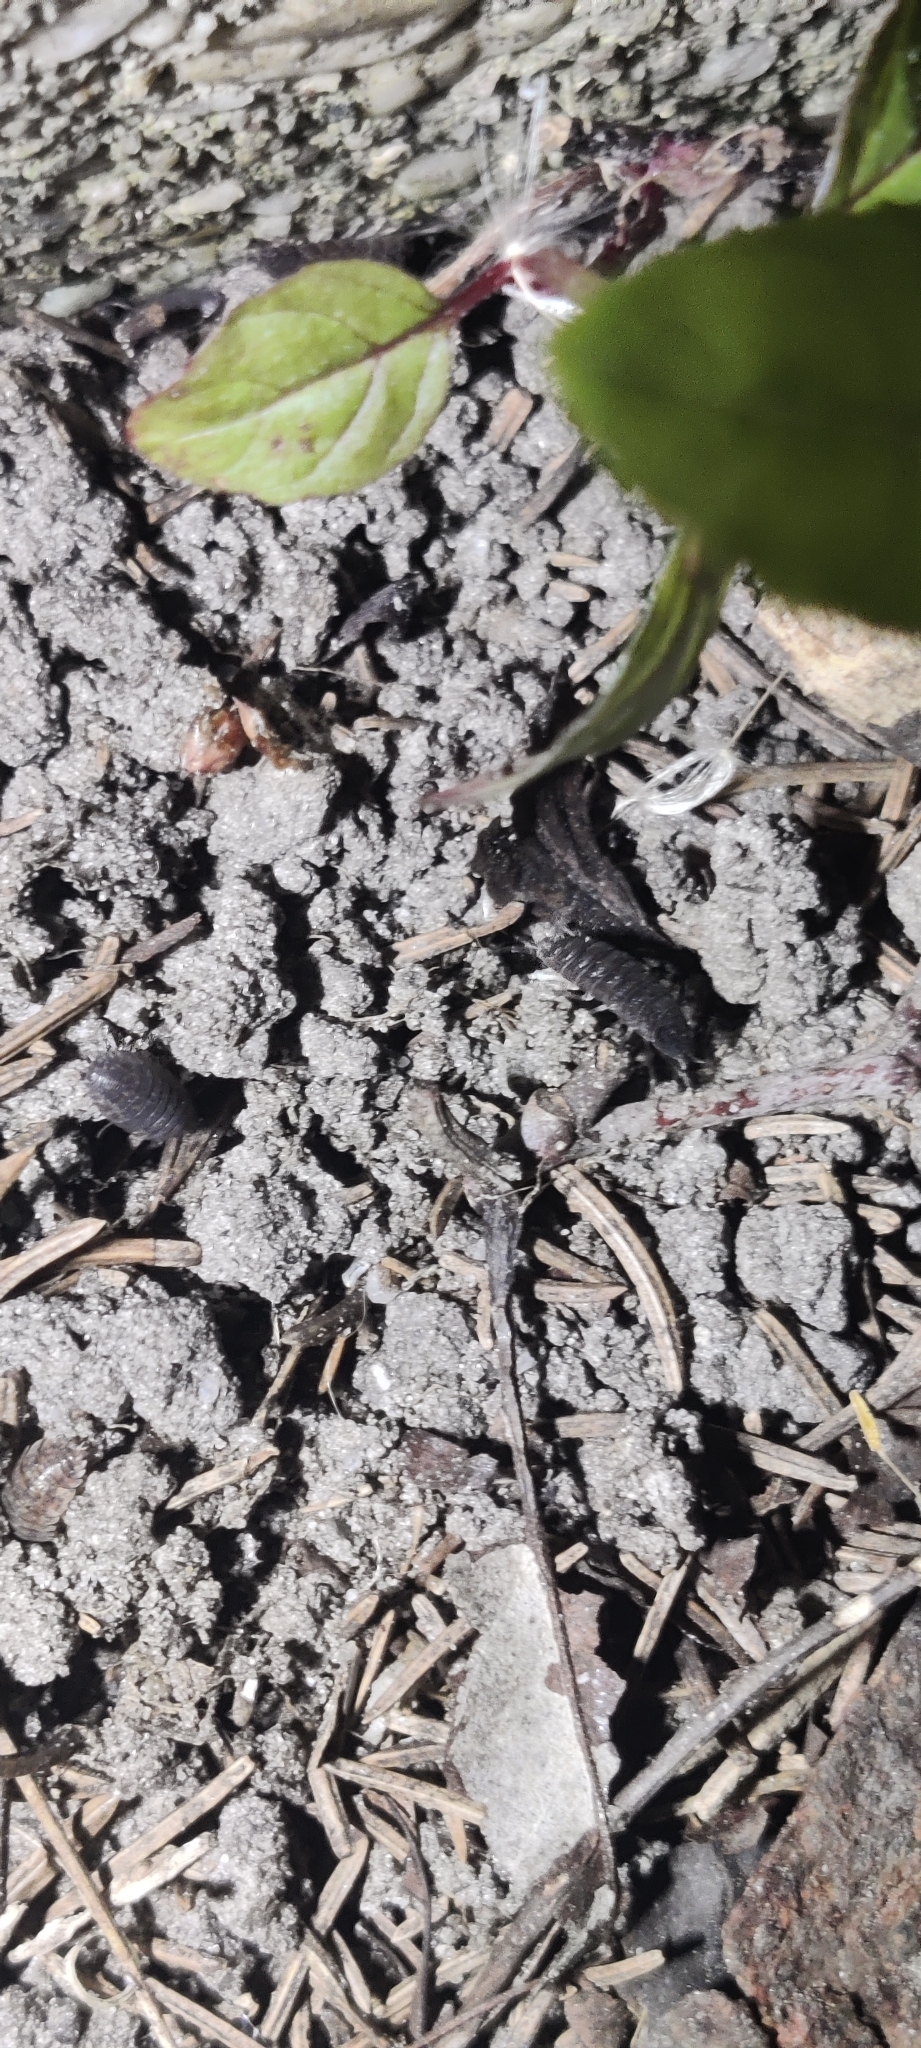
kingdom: Animalia
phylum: Arthropoda
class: Malacostraca
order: Isopoda
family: Porcellionidae
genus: Porcellio
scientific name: Porcellio scaber
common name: Common rough woodlouse
